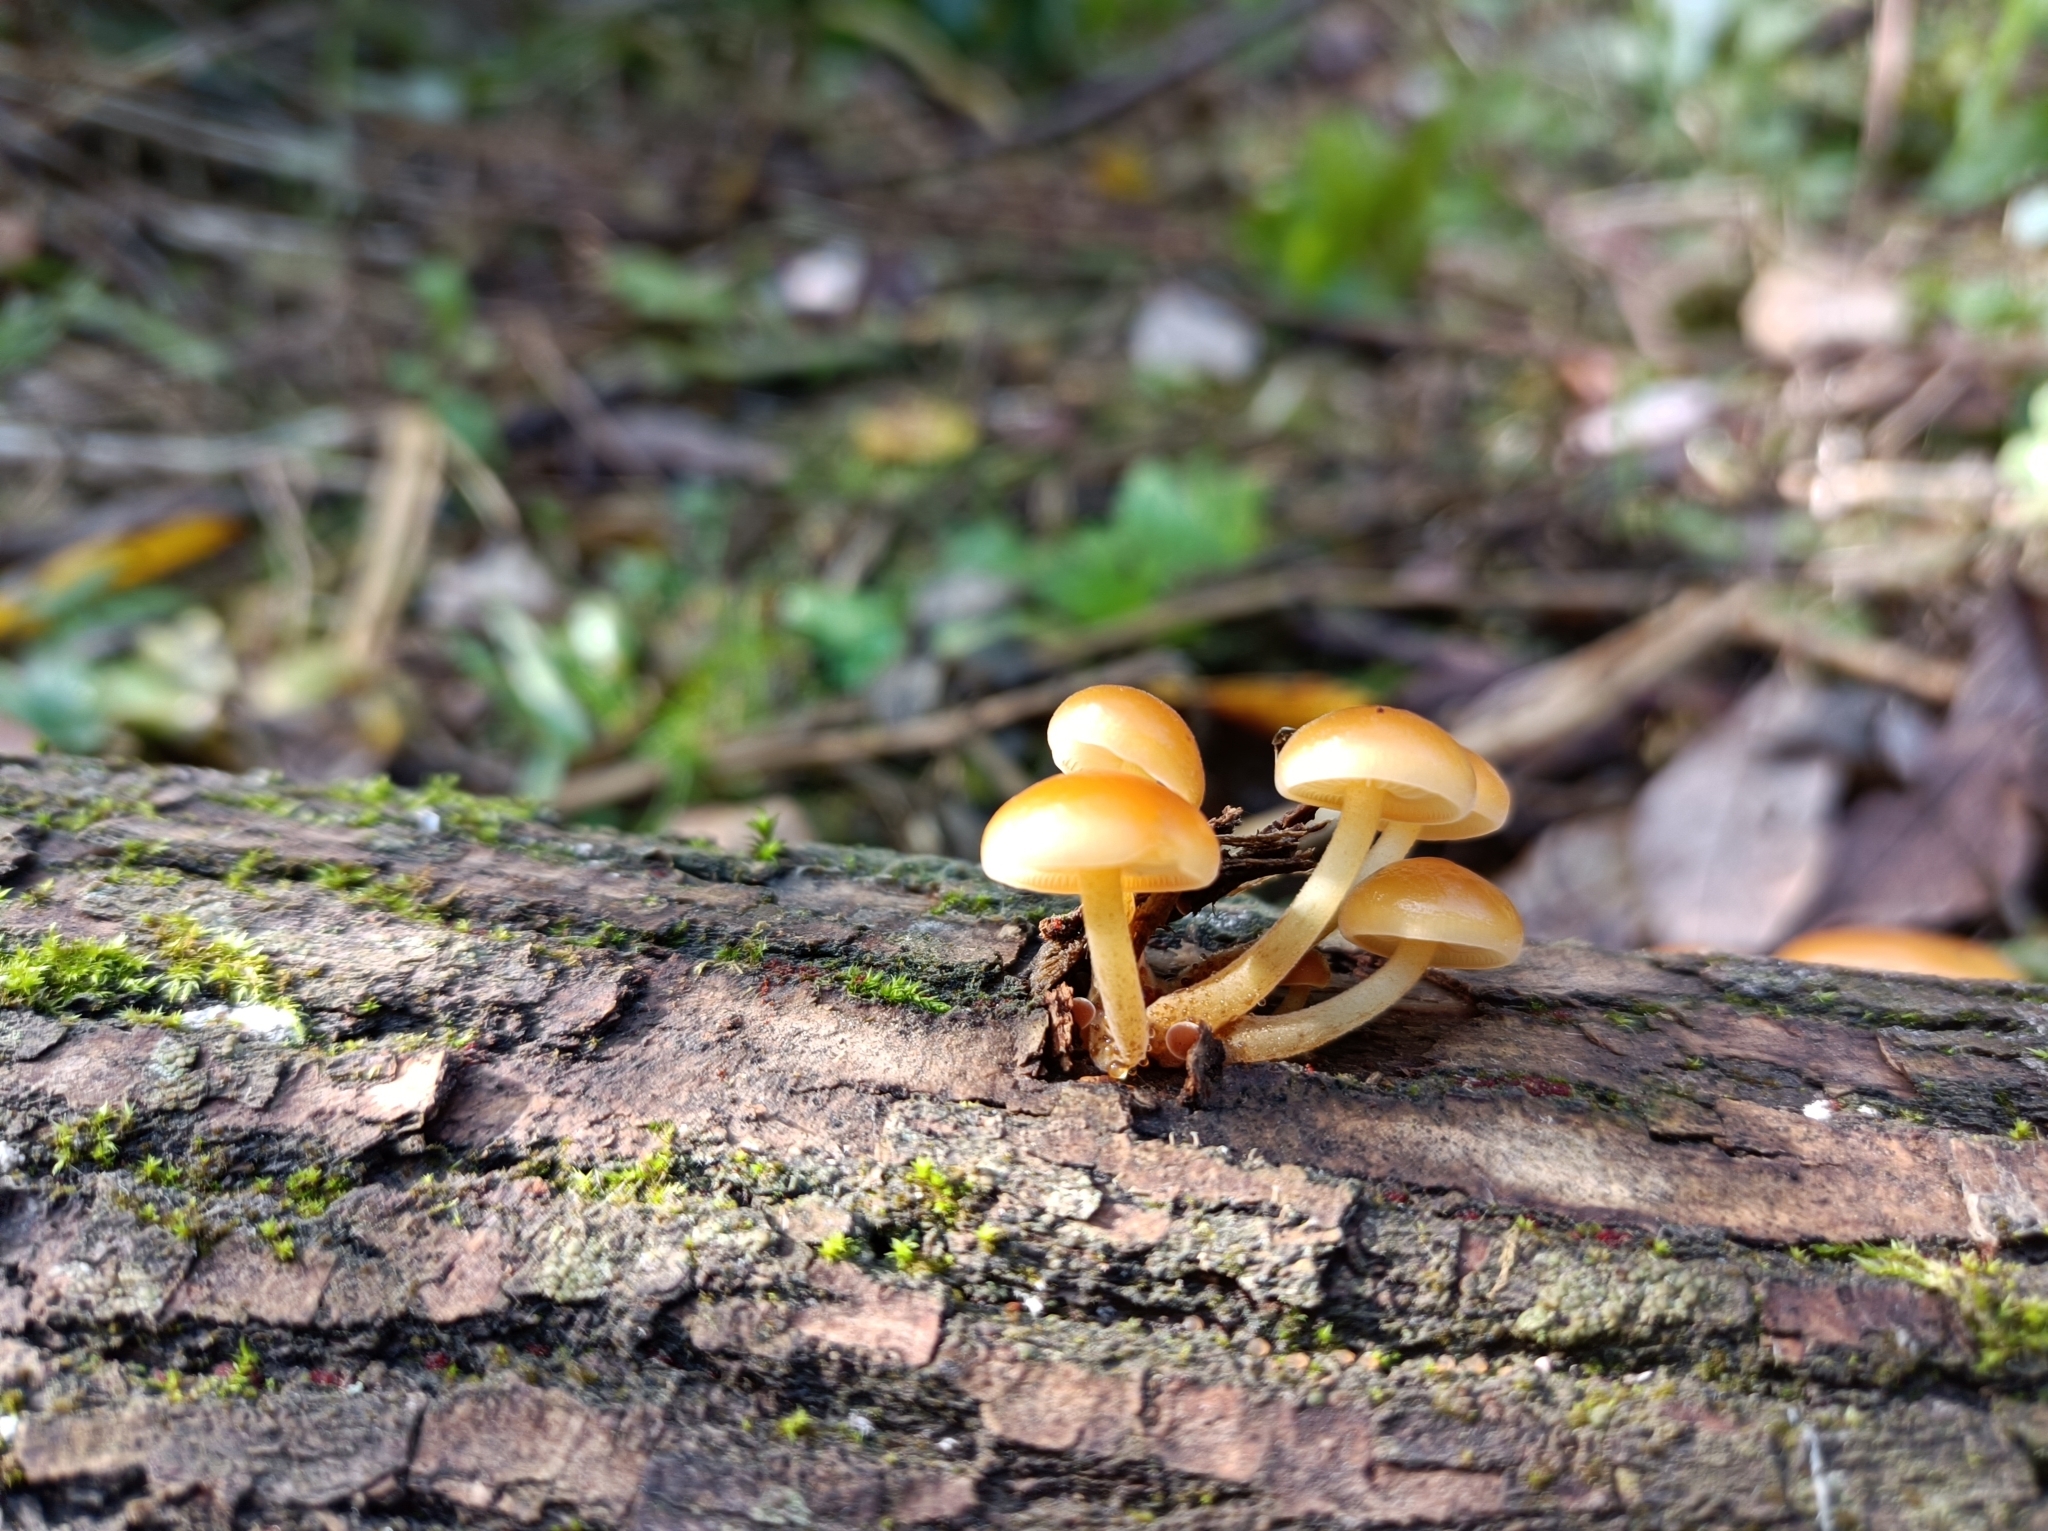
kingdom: Fungi
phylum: Basidiomycota
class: Agaricomycetes
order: Agaricales
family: Physalacriaceae
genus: Flammulina
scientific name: Flammulina
